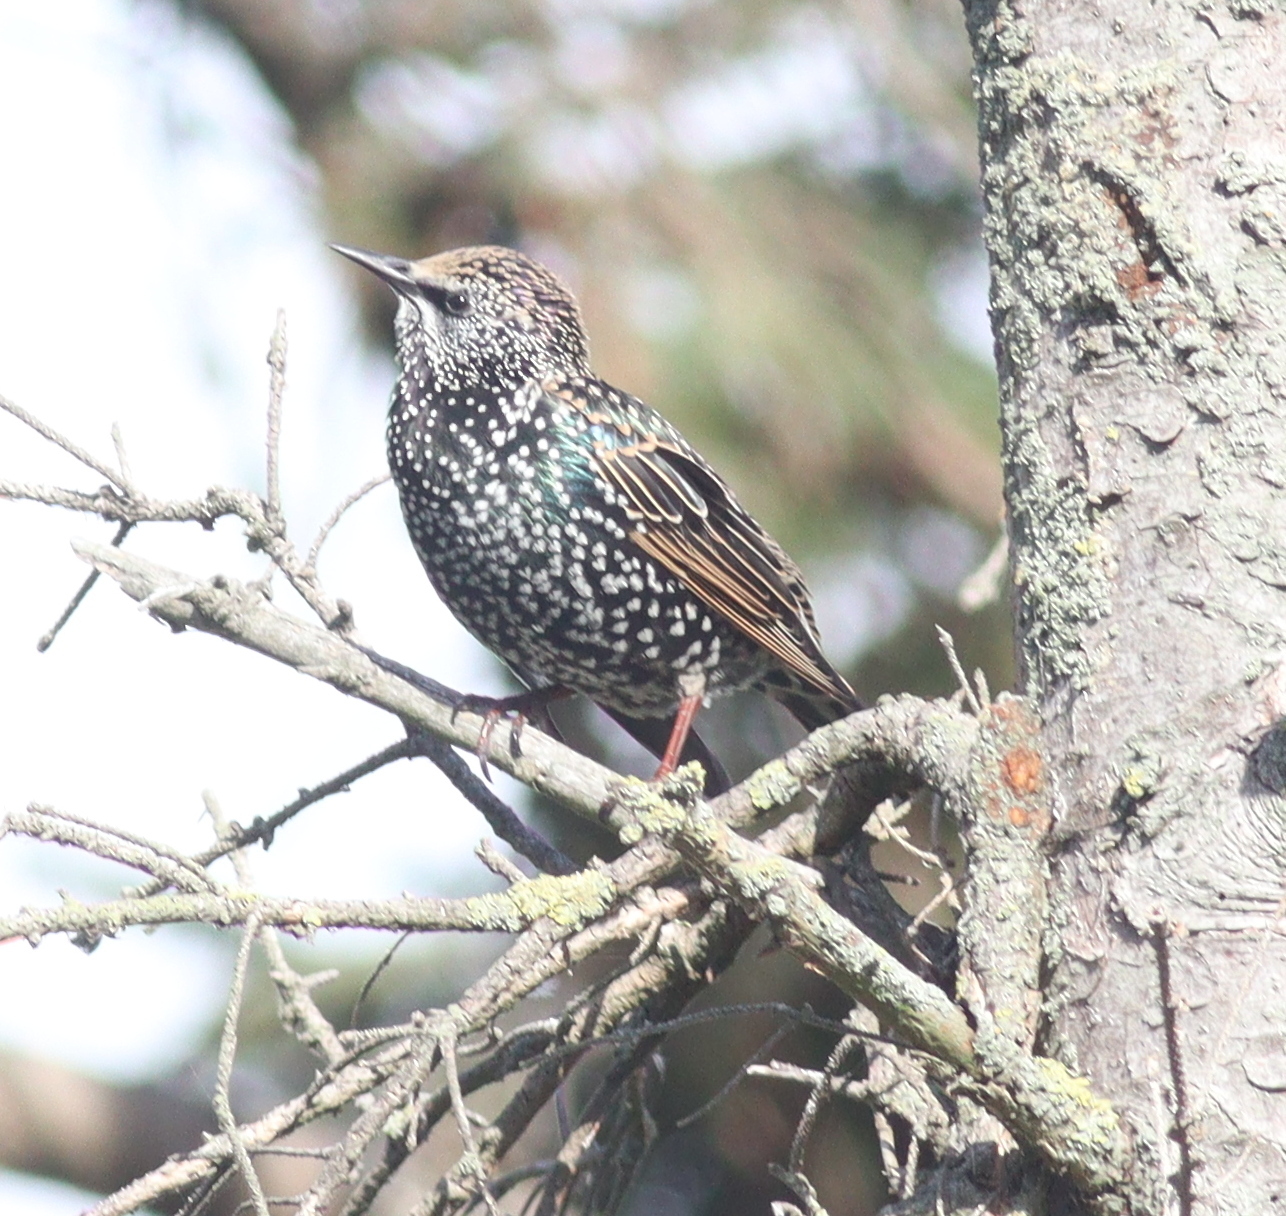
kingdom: Animalia
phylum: Chordata
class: Aves
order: Passeriformes
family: Sturnidae
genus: Sturnus
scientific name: Sturnus vulgaris
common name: Common starling
